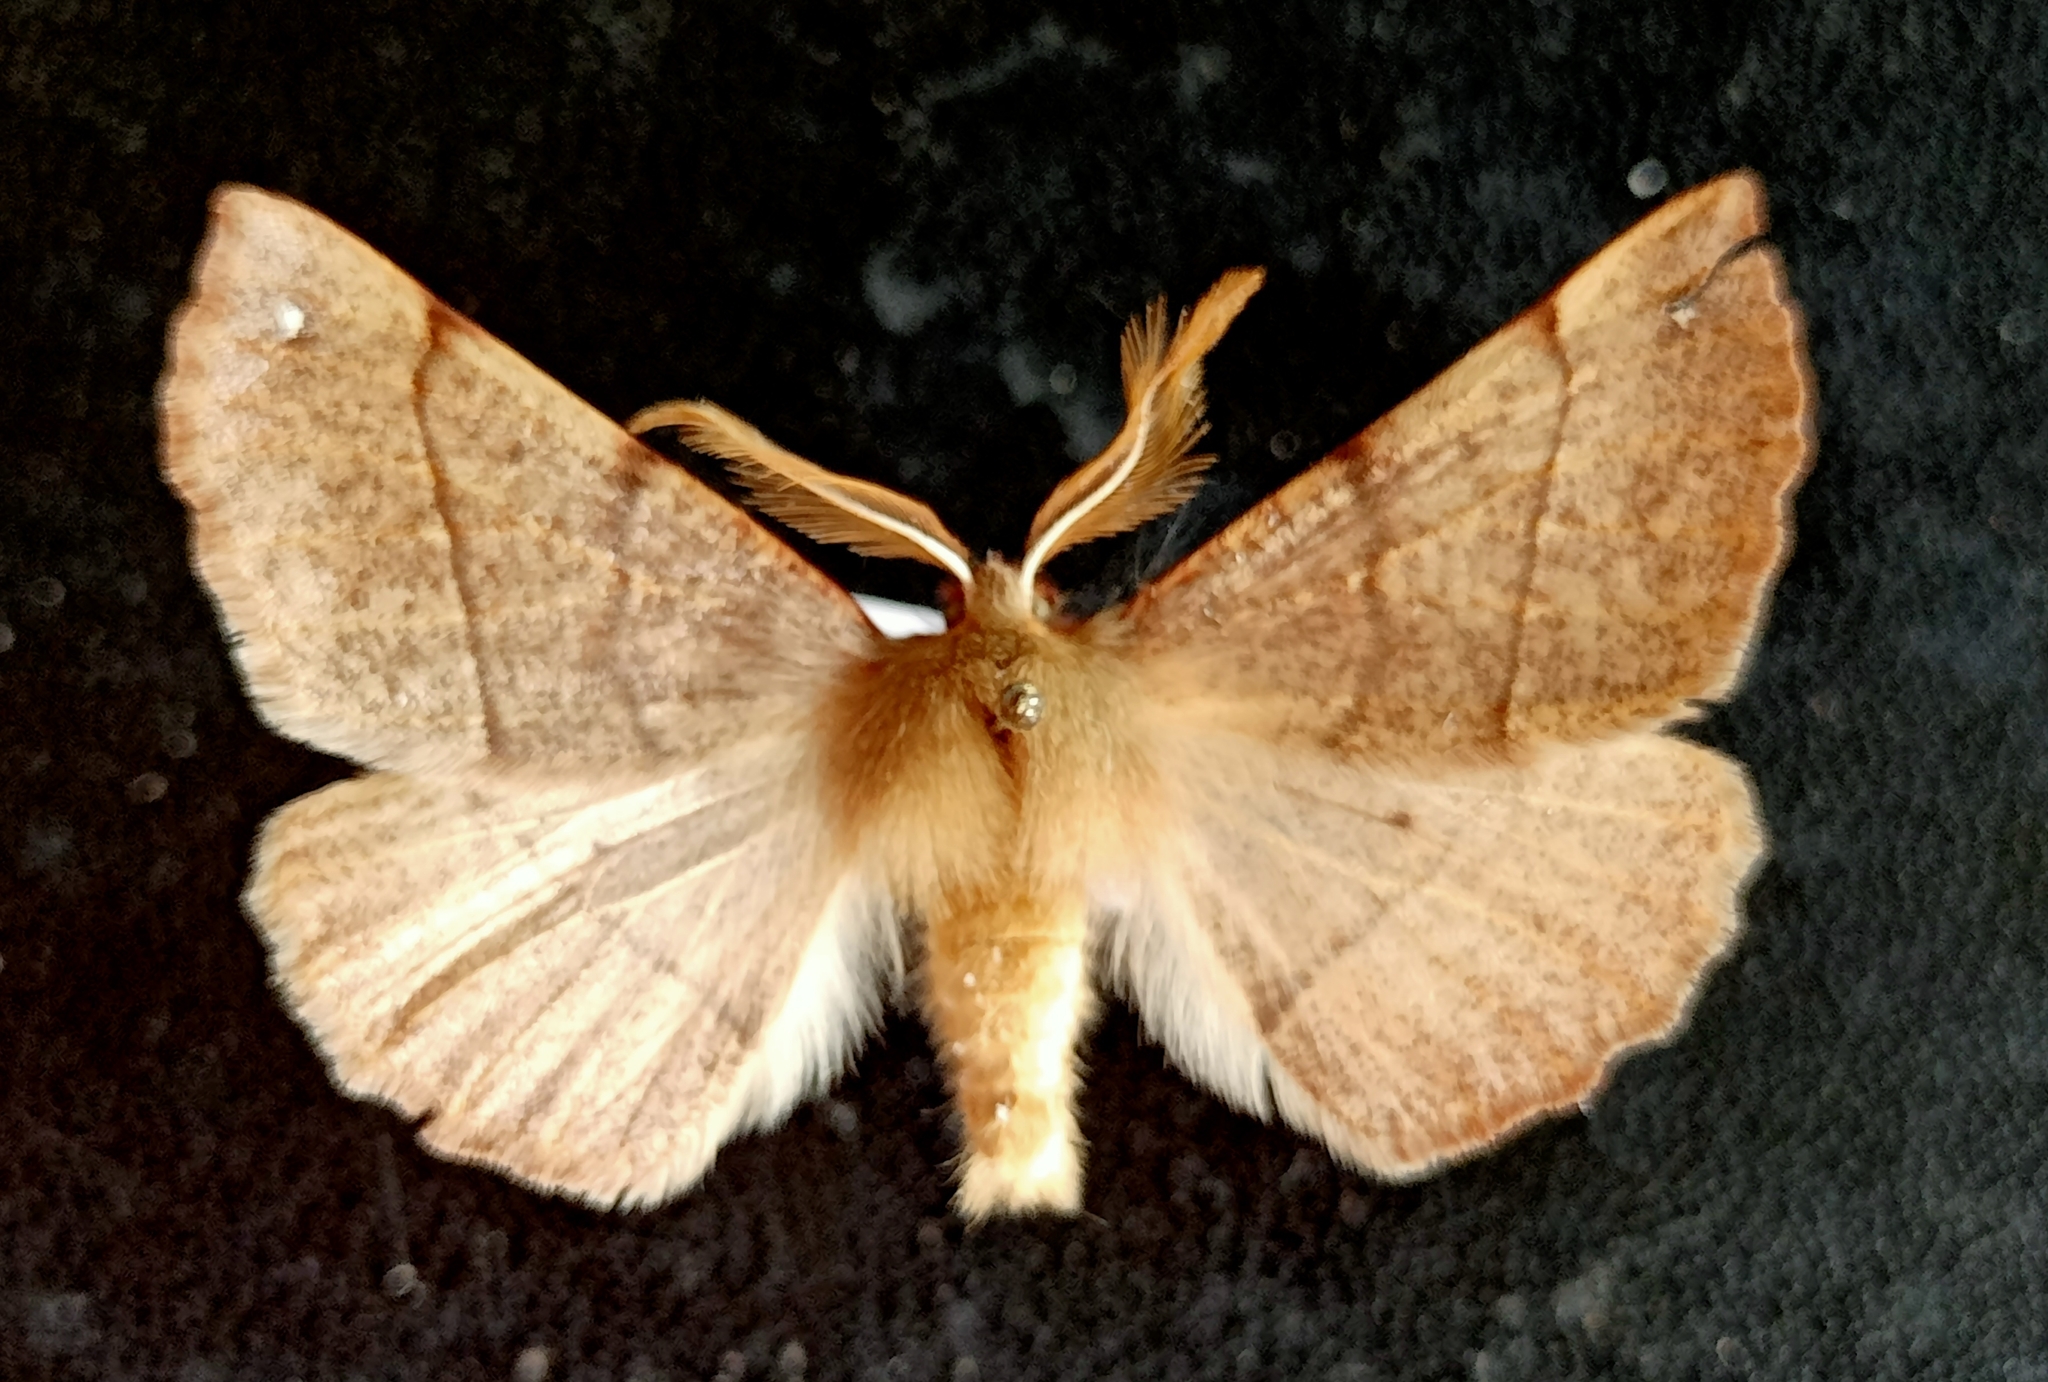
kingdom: Animalia
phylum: Arthropoda
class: Insecta
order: Lepidoptera
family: Geometridae
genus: Colotois
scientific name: Colotois pennaria
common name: Feathered thorn
